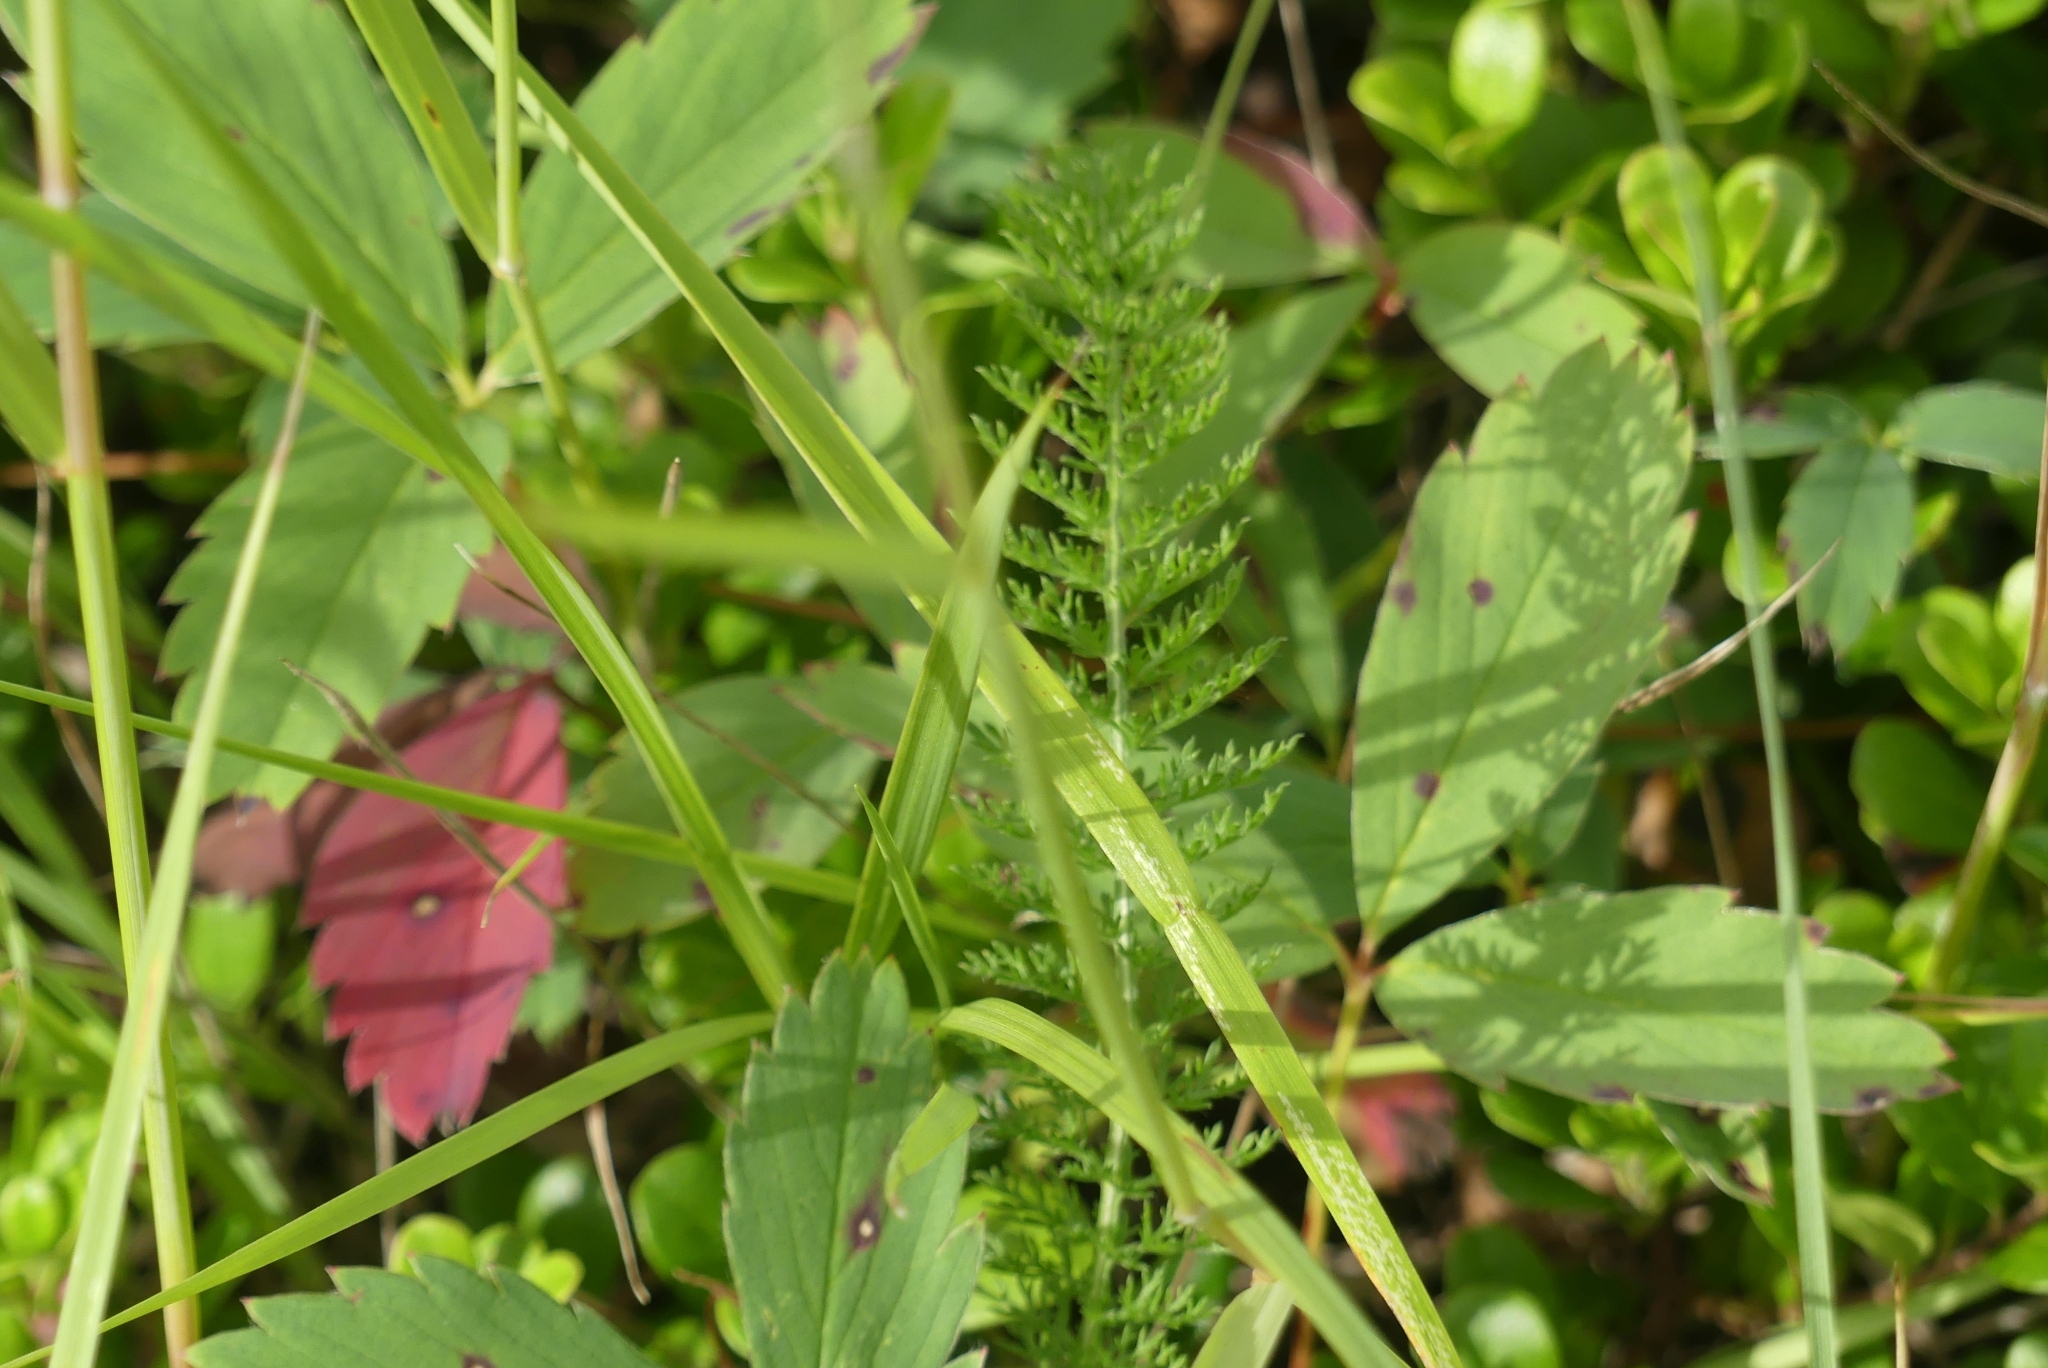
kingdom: Plantae
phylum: Tracheophyta
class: Magnoliopsida
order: Asterales
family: Asteraceae
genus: Achillea
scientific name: Achillea millefolium
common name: Yarrow
